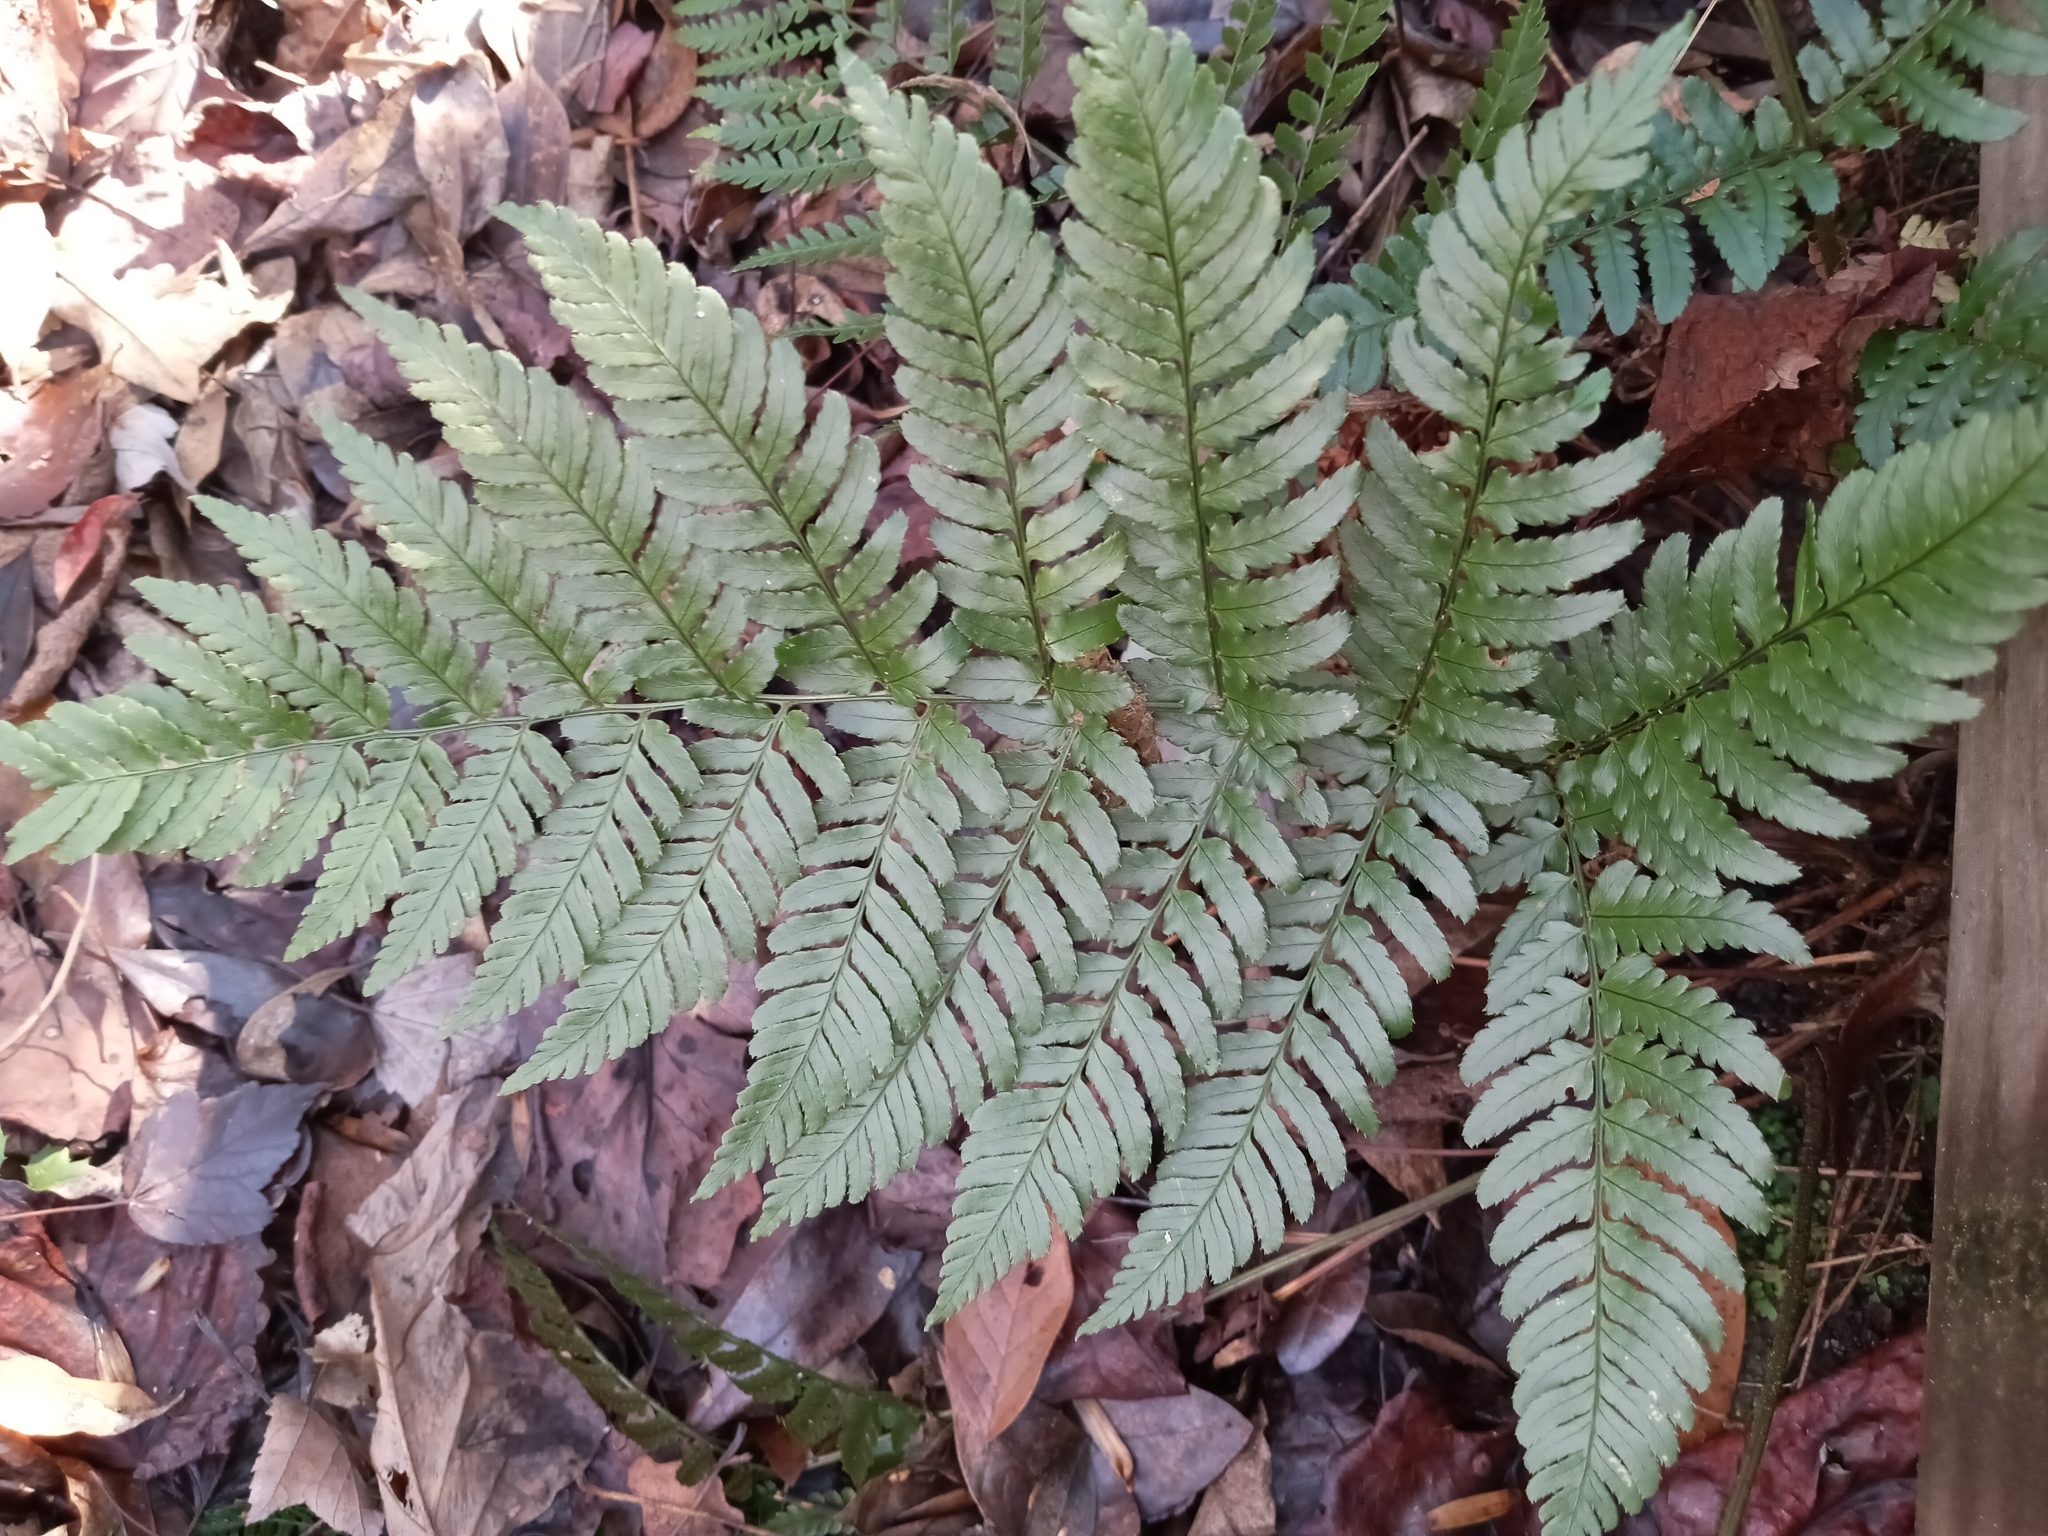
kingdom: Plantae
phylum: Tracheophyta
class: Polypodiopsida
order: Polypodiales
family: Dryopteridaceae
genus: Dryopteris
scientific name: Dryopteris erythrosora
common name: Autumn fern
